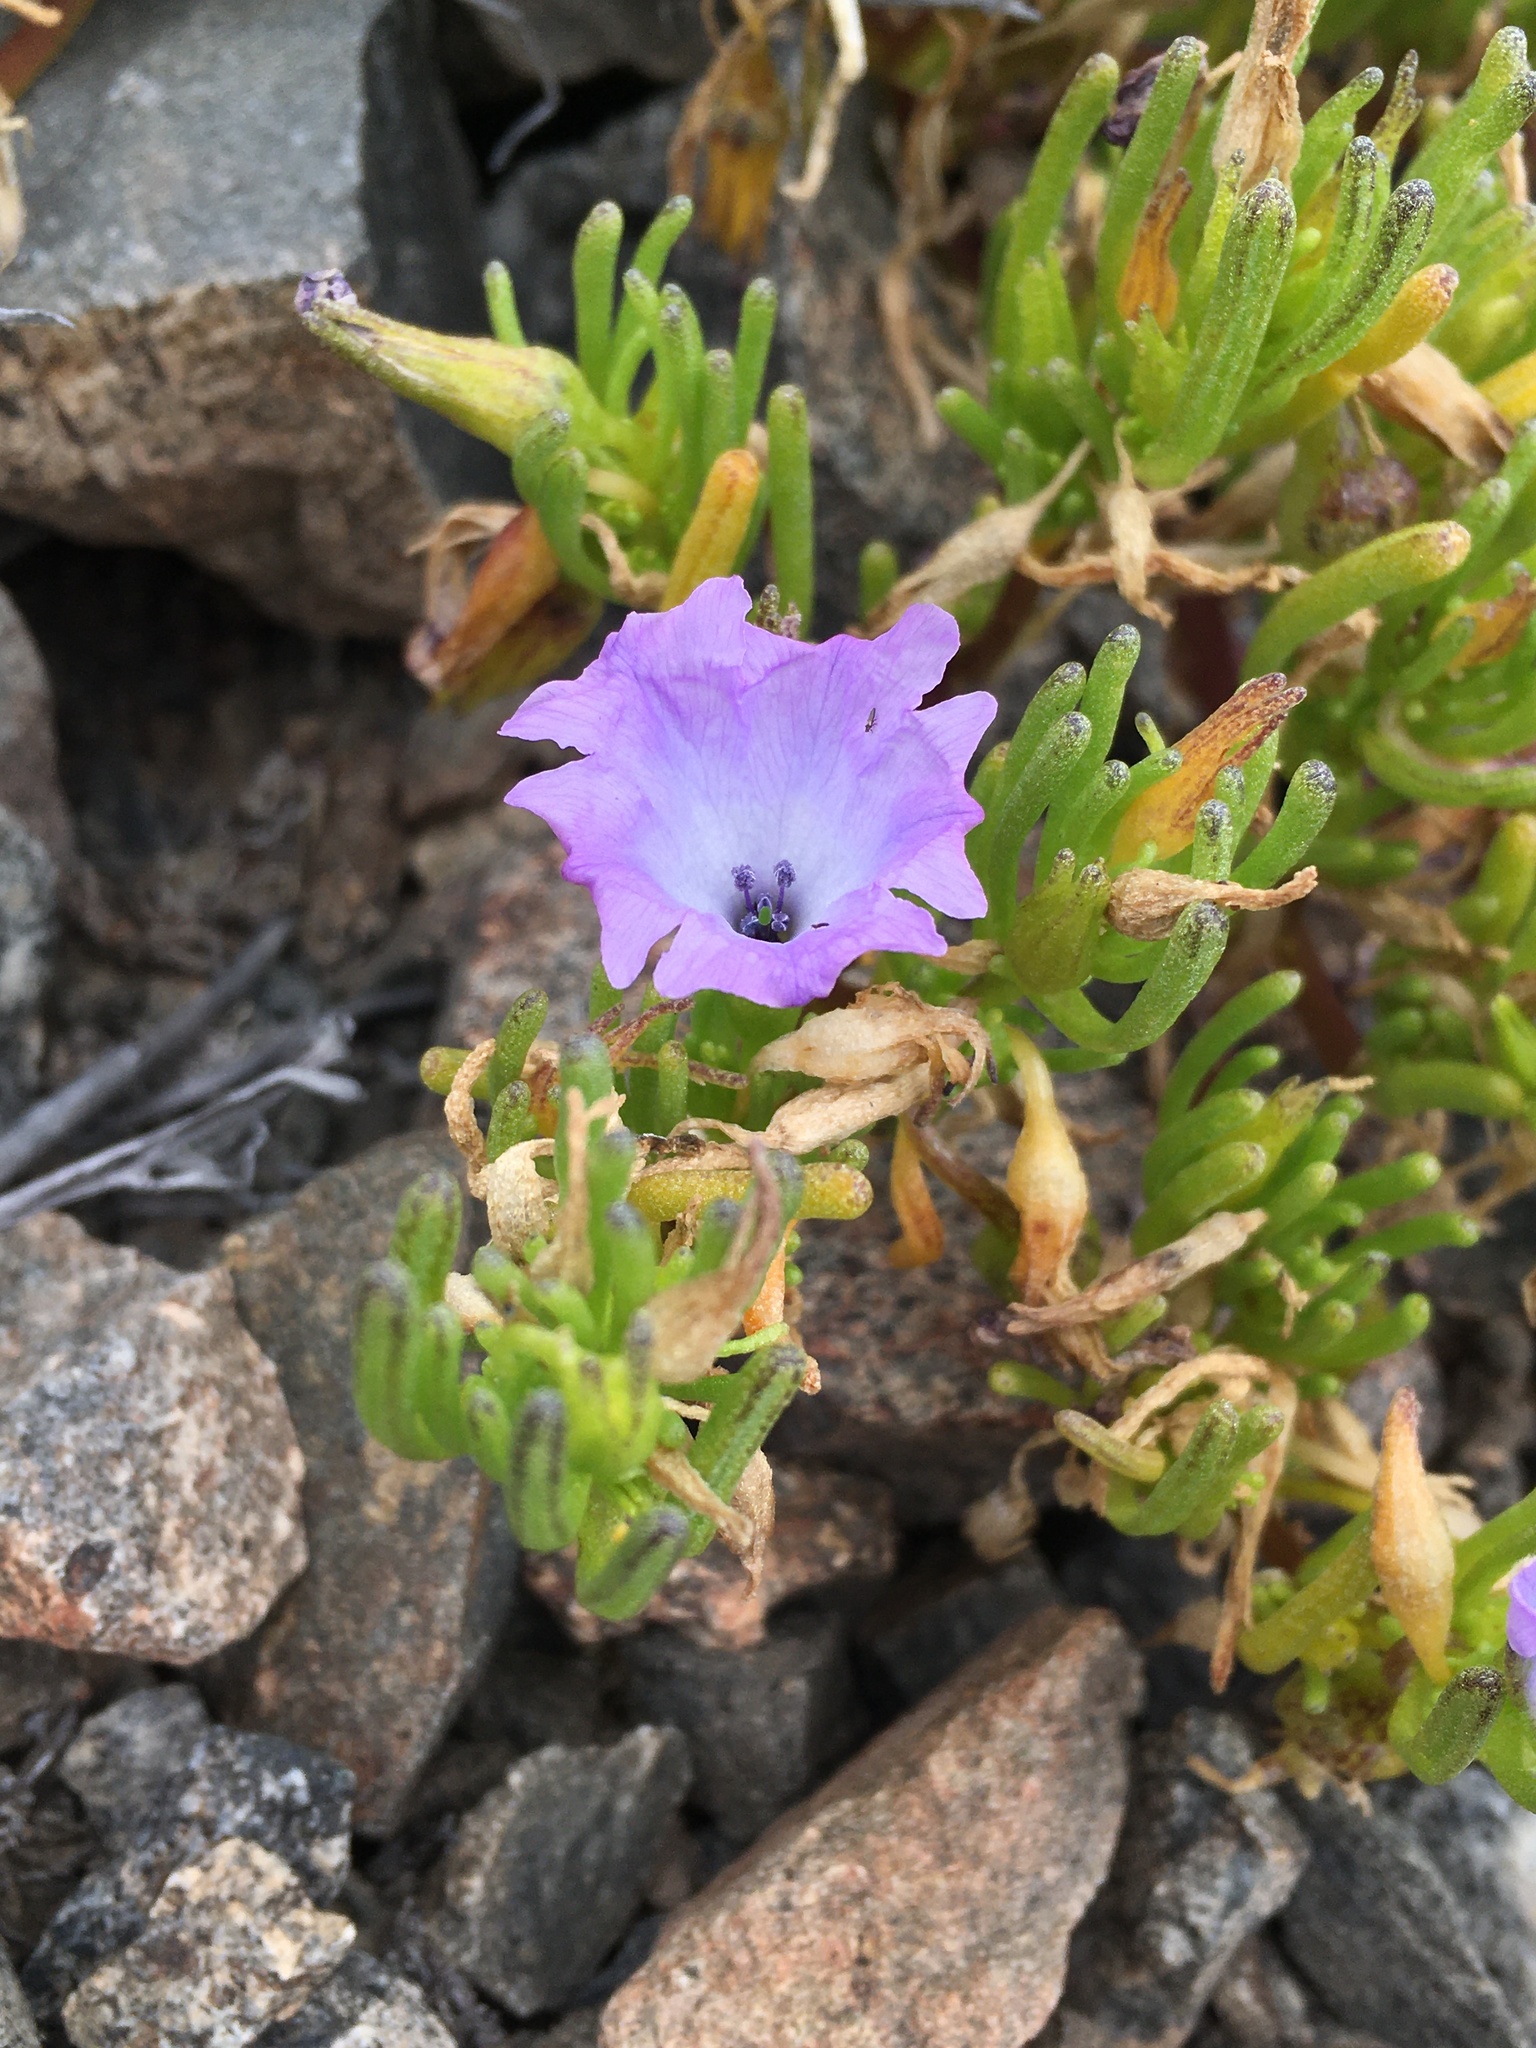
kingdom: Plantae
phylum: Tracheophyta
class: Magnoliopsida
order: Solanales
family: Solanaceae
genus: Nolana
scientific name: Nolana linearifolia
